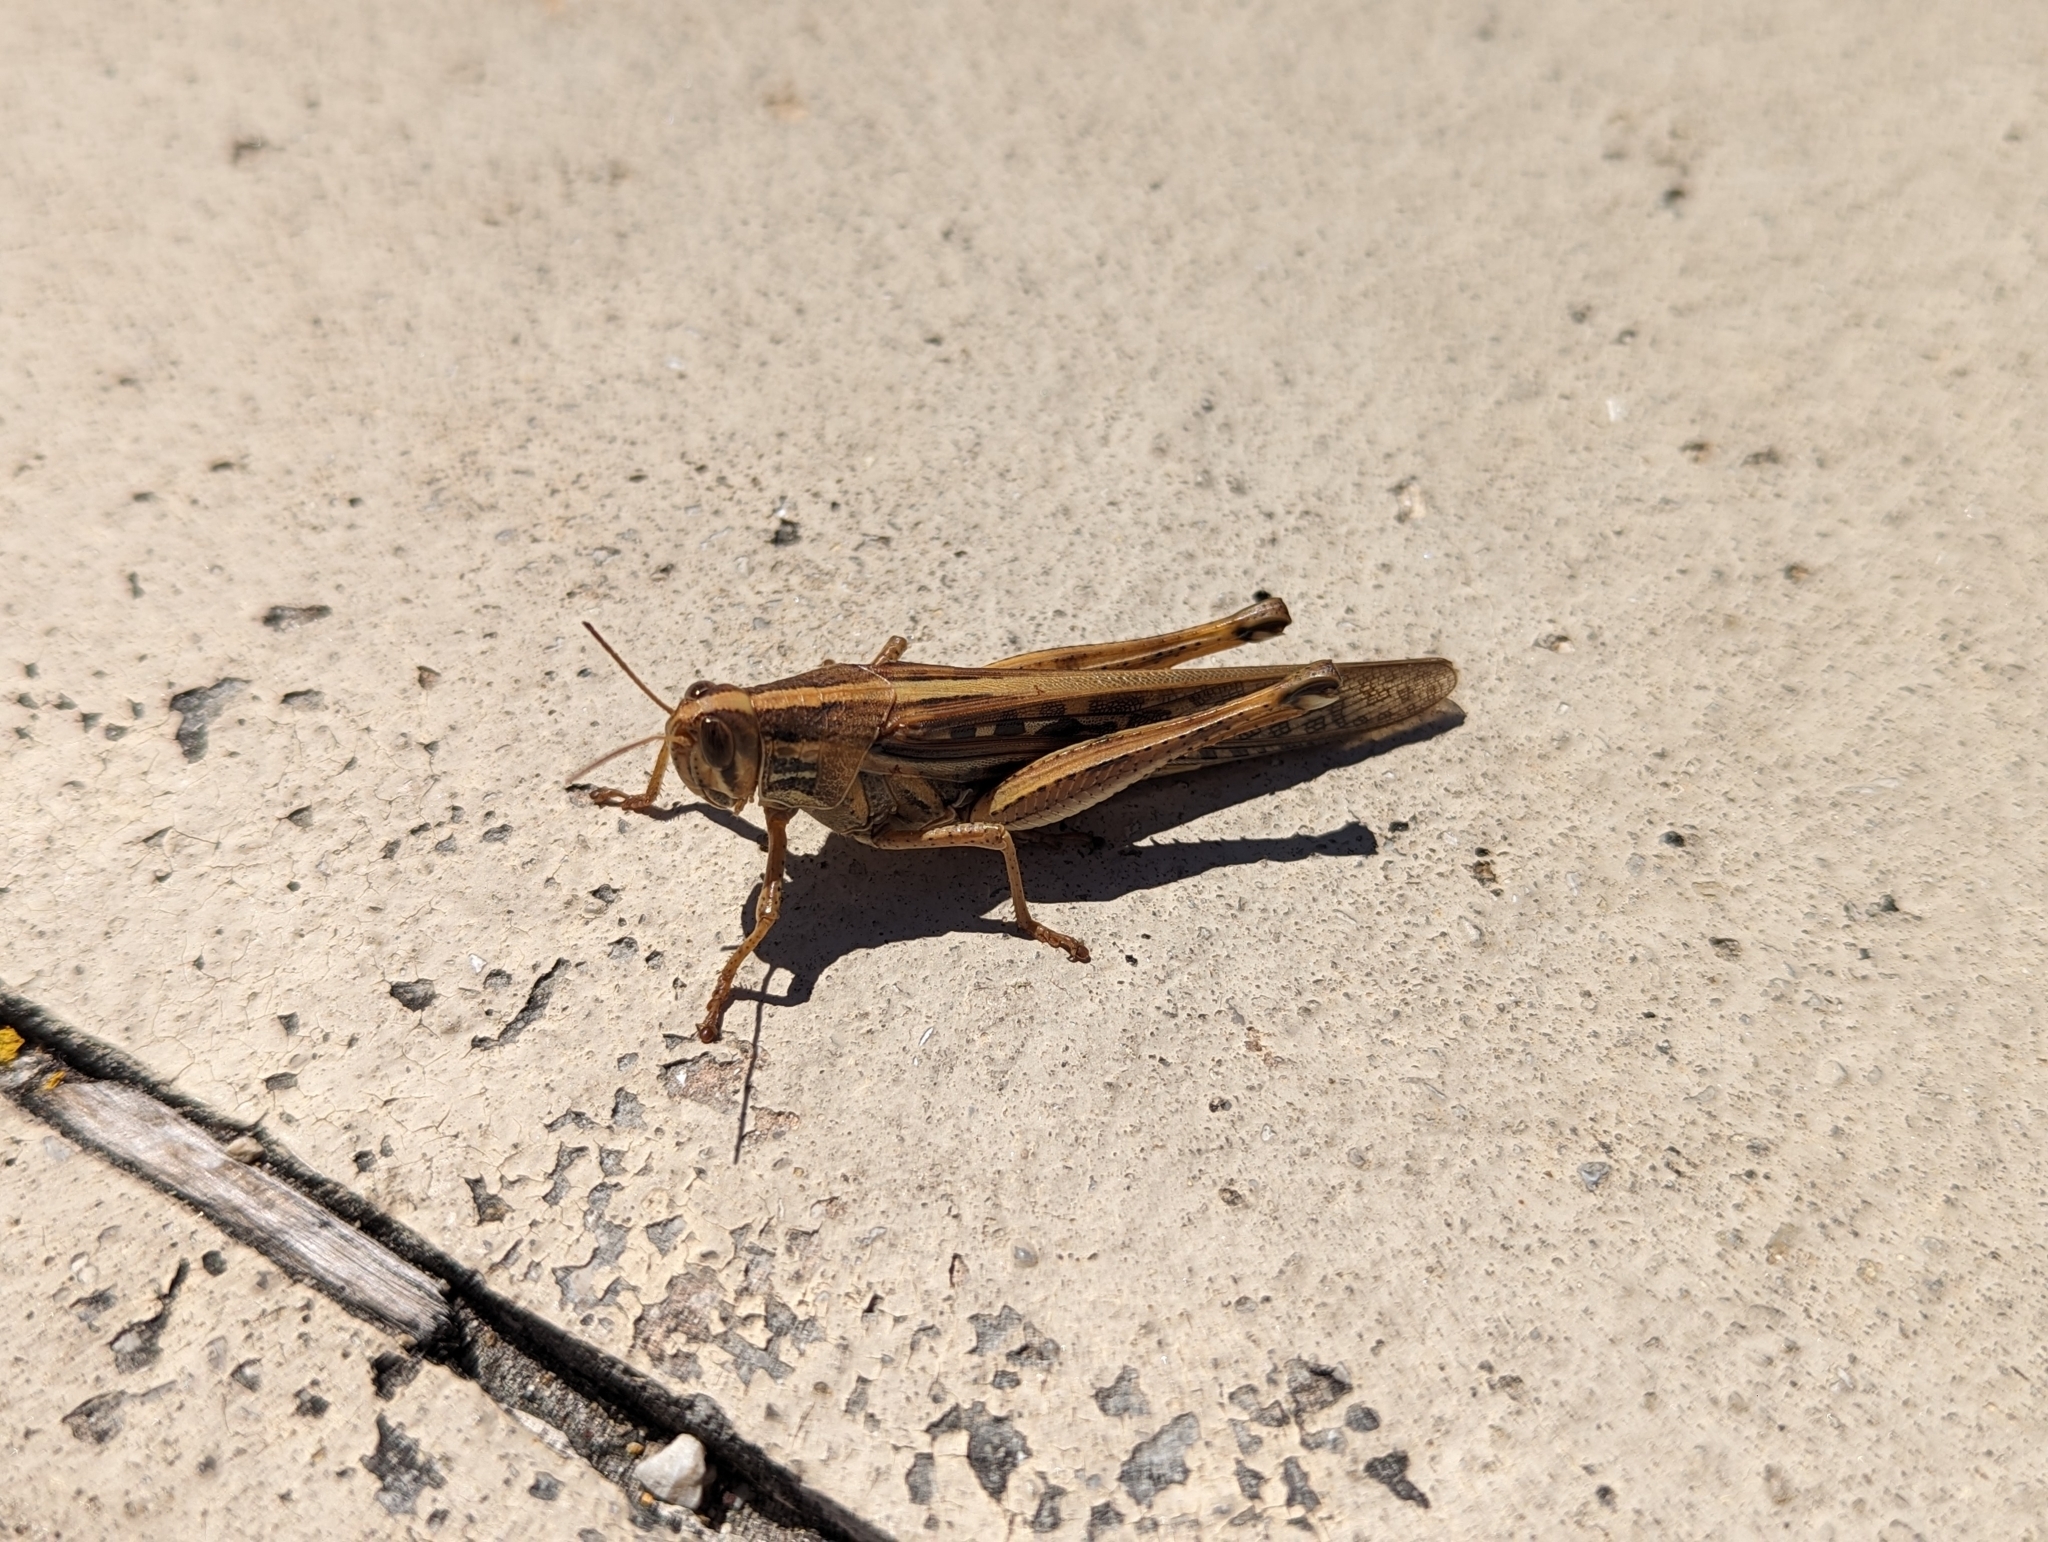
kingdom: Animalia
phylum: Arthropoda
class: Insecta
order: Orthoptera
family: Acrididae
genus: Schistocerca
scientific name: Schistocerca serialis
